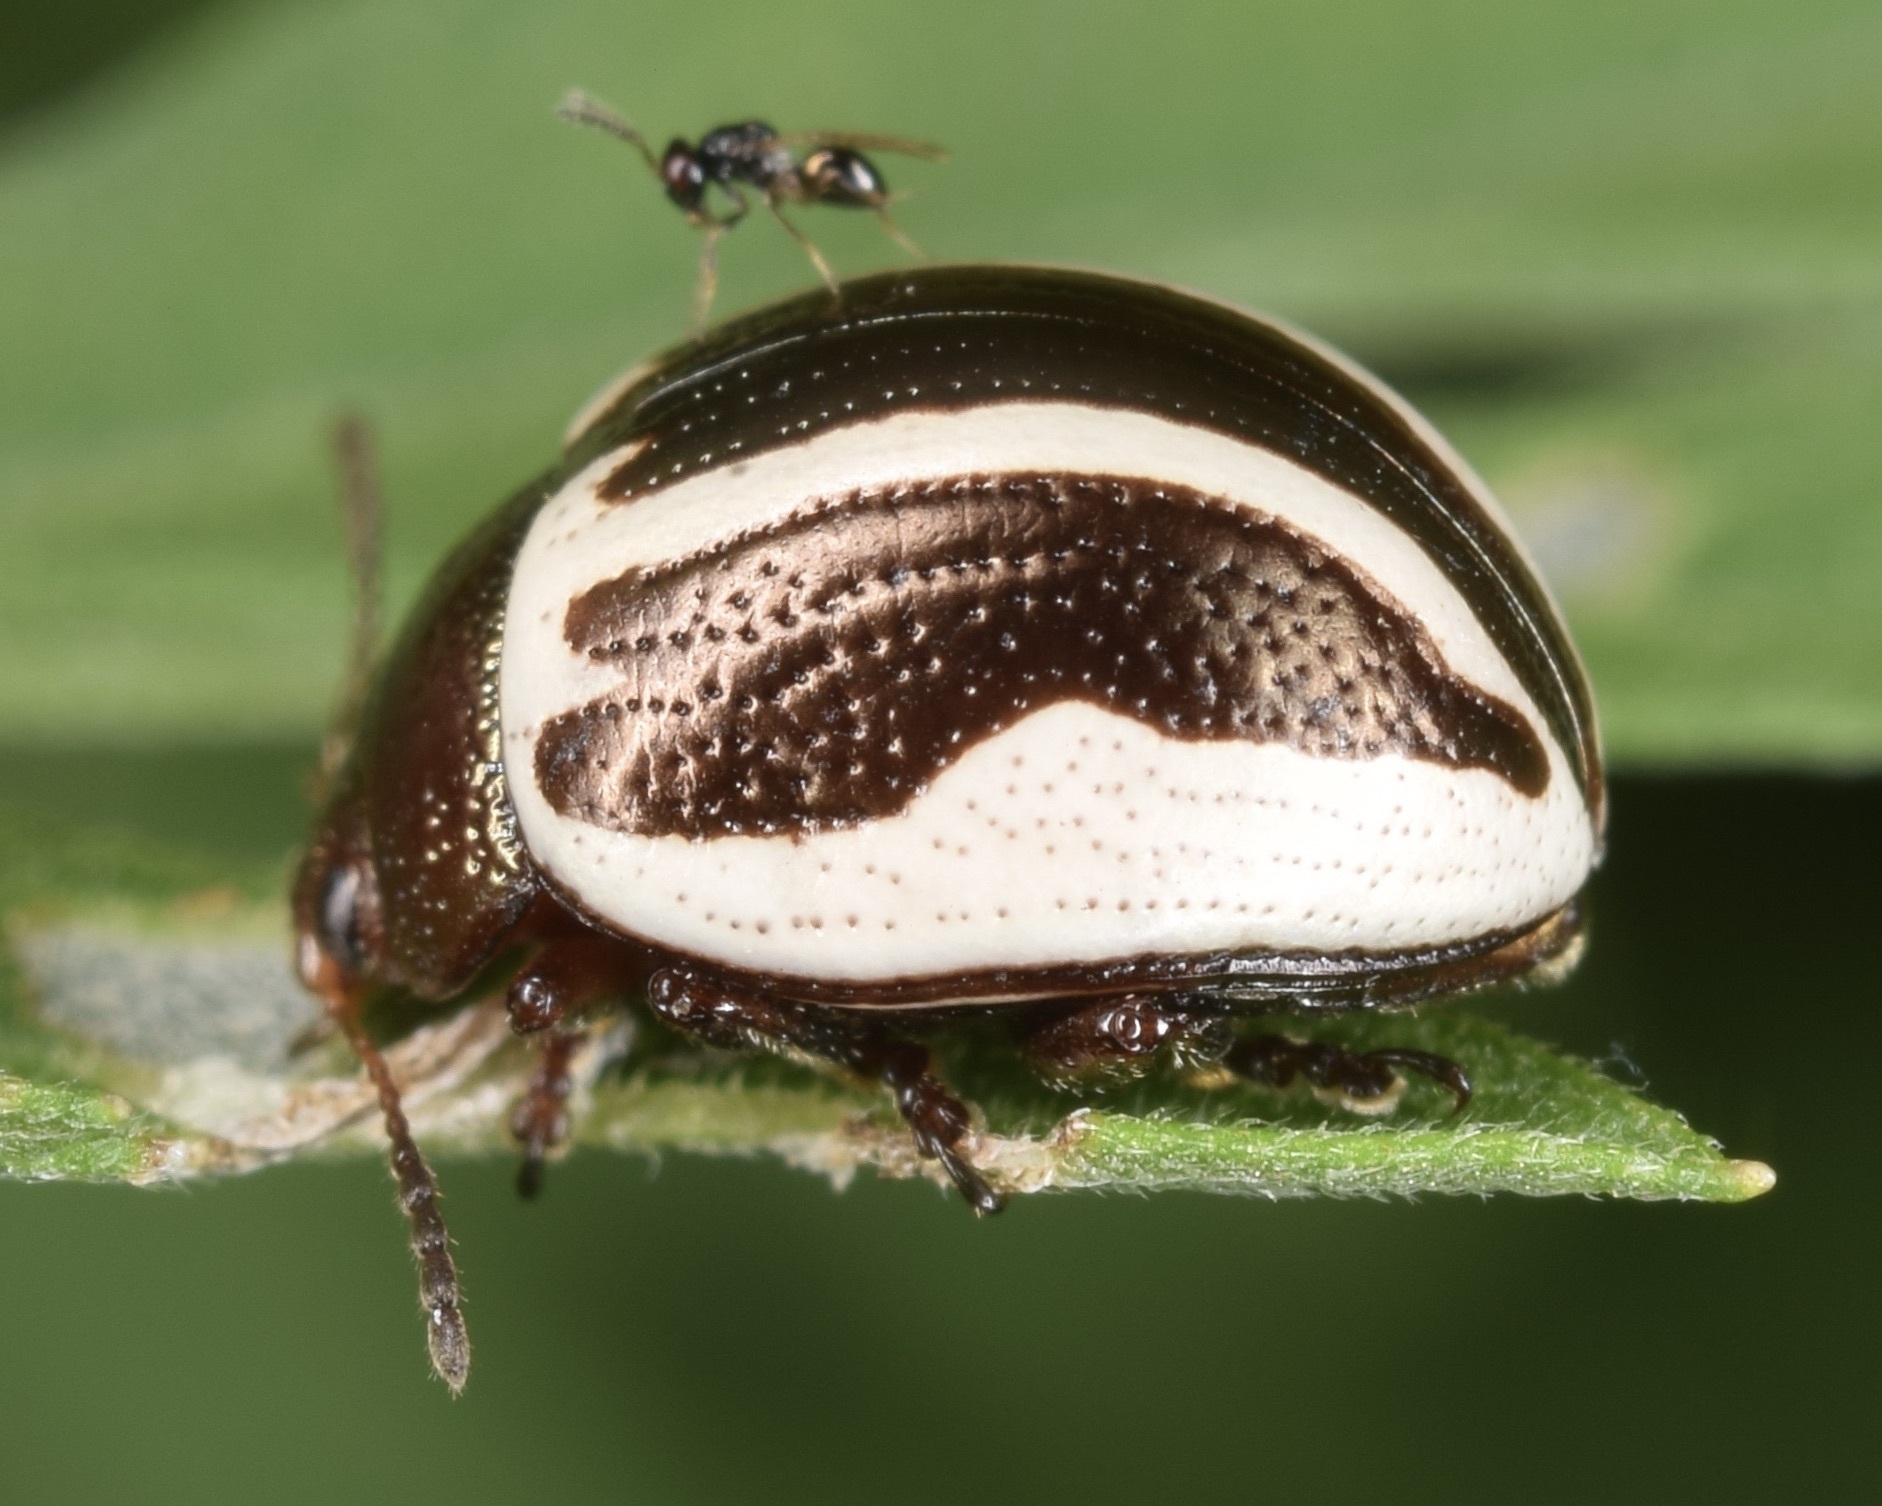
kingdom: Animalia
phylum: Arthropoda
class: Insecta
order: Coleoptera
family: Chrysomelidae
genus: Calligrapha
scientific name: Calligrapha
